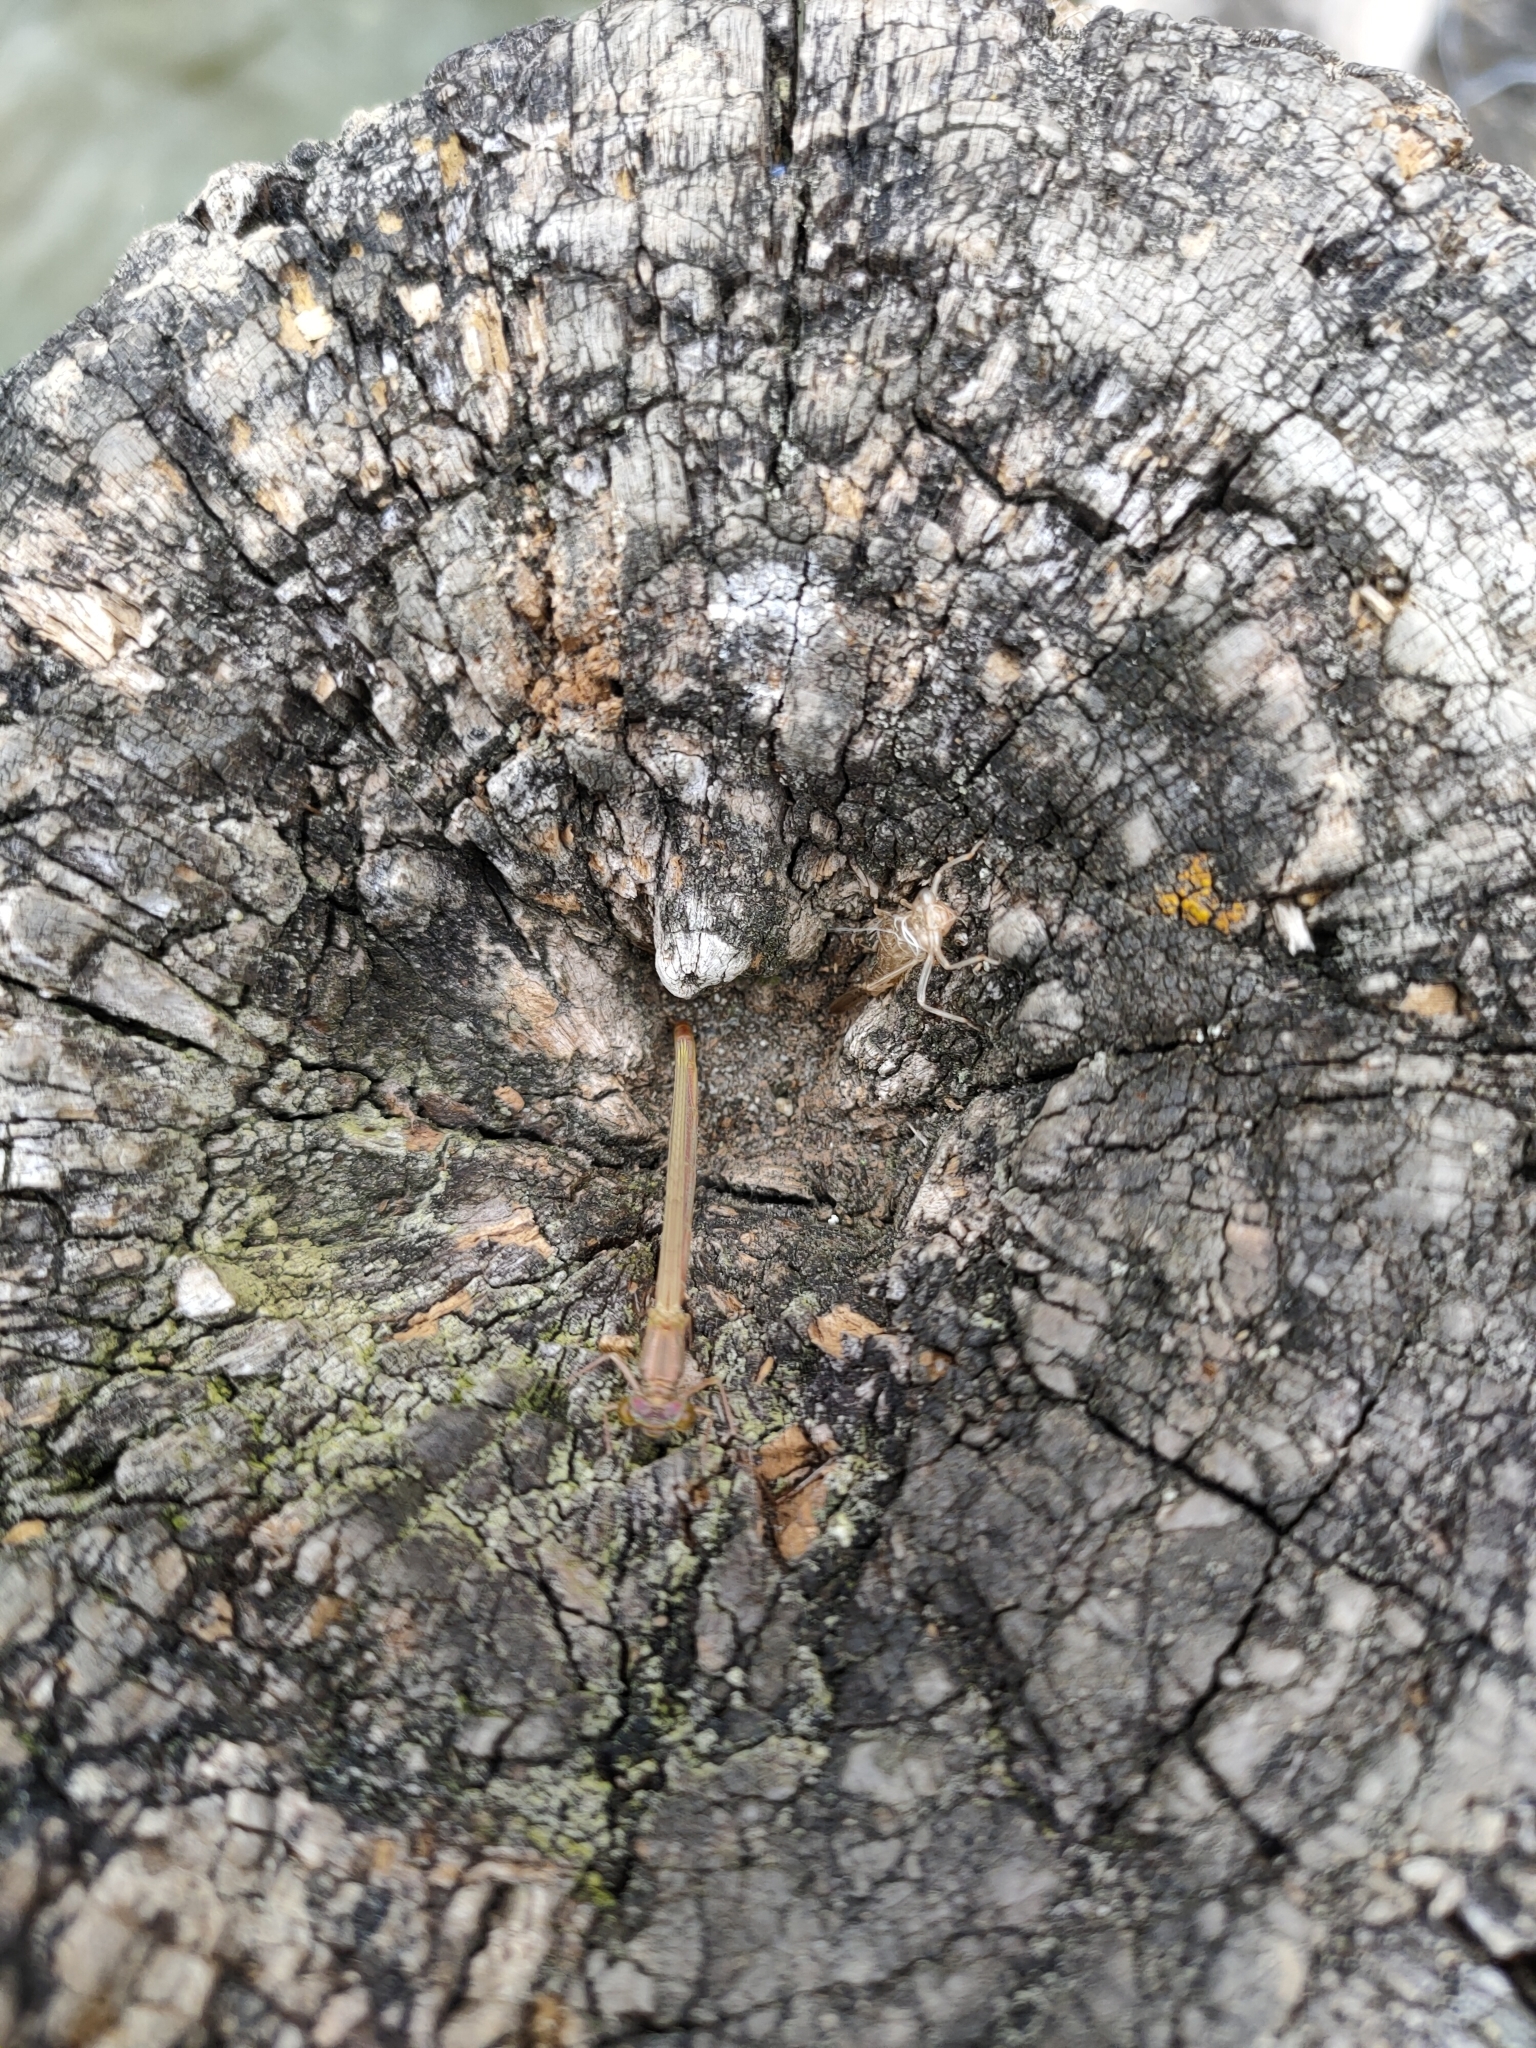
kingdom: Animalia
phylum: Arthropoda
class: Insecta
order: Odonata
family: Coenagrionidae
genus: Xanthocnemis
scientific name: Xanthocnemis zealandica
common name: Common redcoat damselfly
